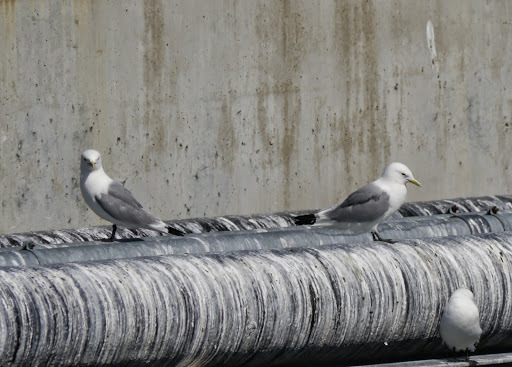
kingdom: Animalia
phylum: Chordata
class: Aves
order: Charadriiformes
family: Laridae
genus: Rissa
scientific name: Rissa tridactyla
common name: Black-legged kittiwake
